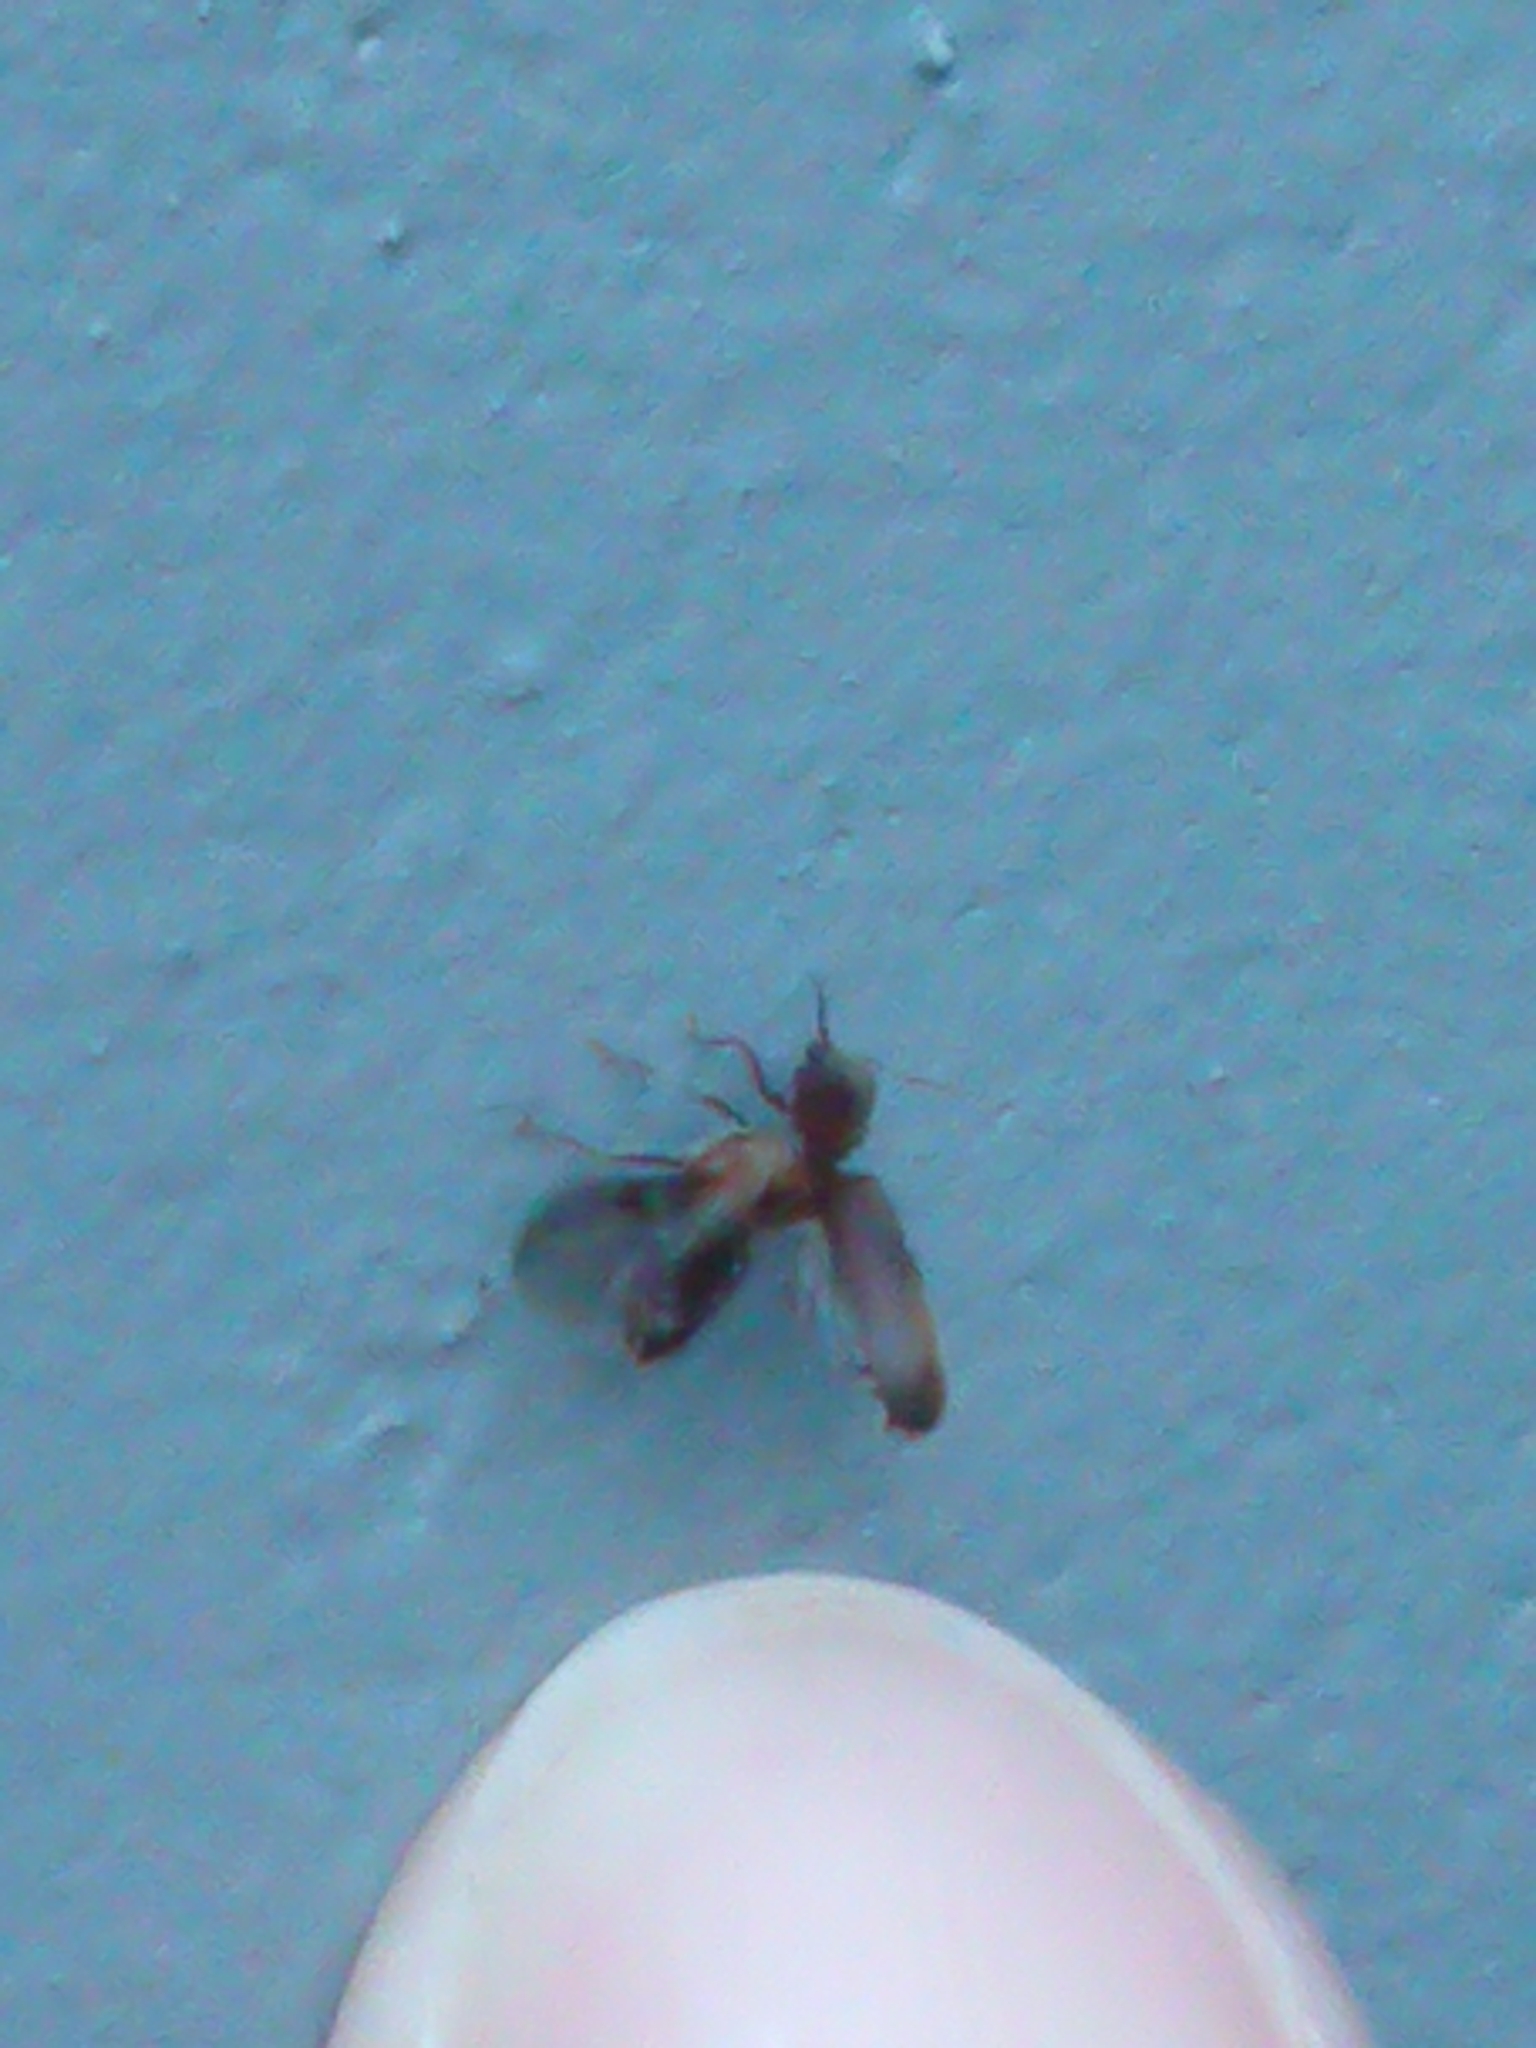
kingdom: Animalia
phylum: Arthropoda
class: Insecta
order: Coleoptera
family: Anobiidae
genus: Anobium
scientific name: Anobium punctatum
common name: Furniture beetle
